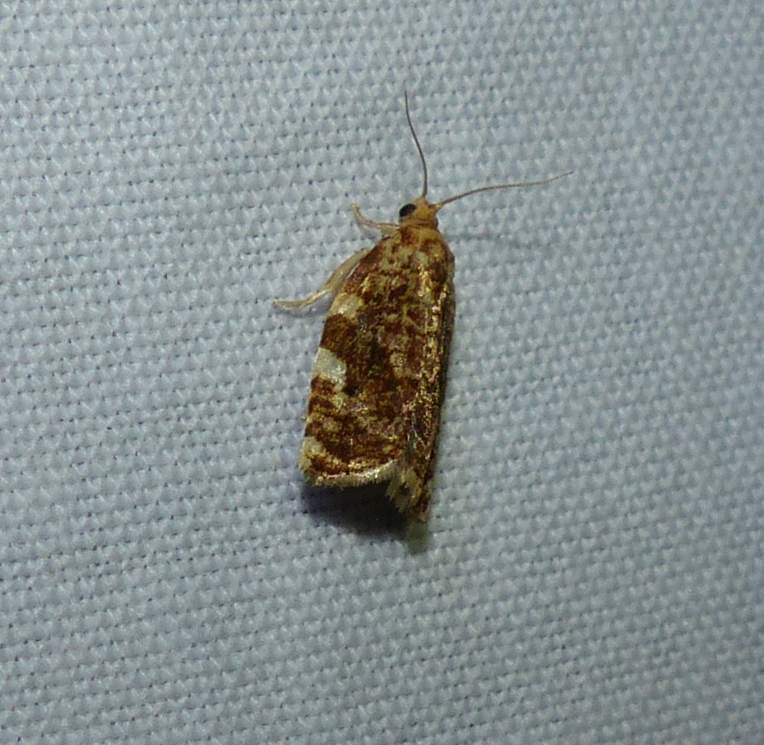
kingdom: Animalia
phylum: Arthropoda
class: Insecta
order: Lepidoptera
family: Tortricidae
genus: Archips
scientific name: Archips argyrospila
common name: Fruit-tree leafroller moth
